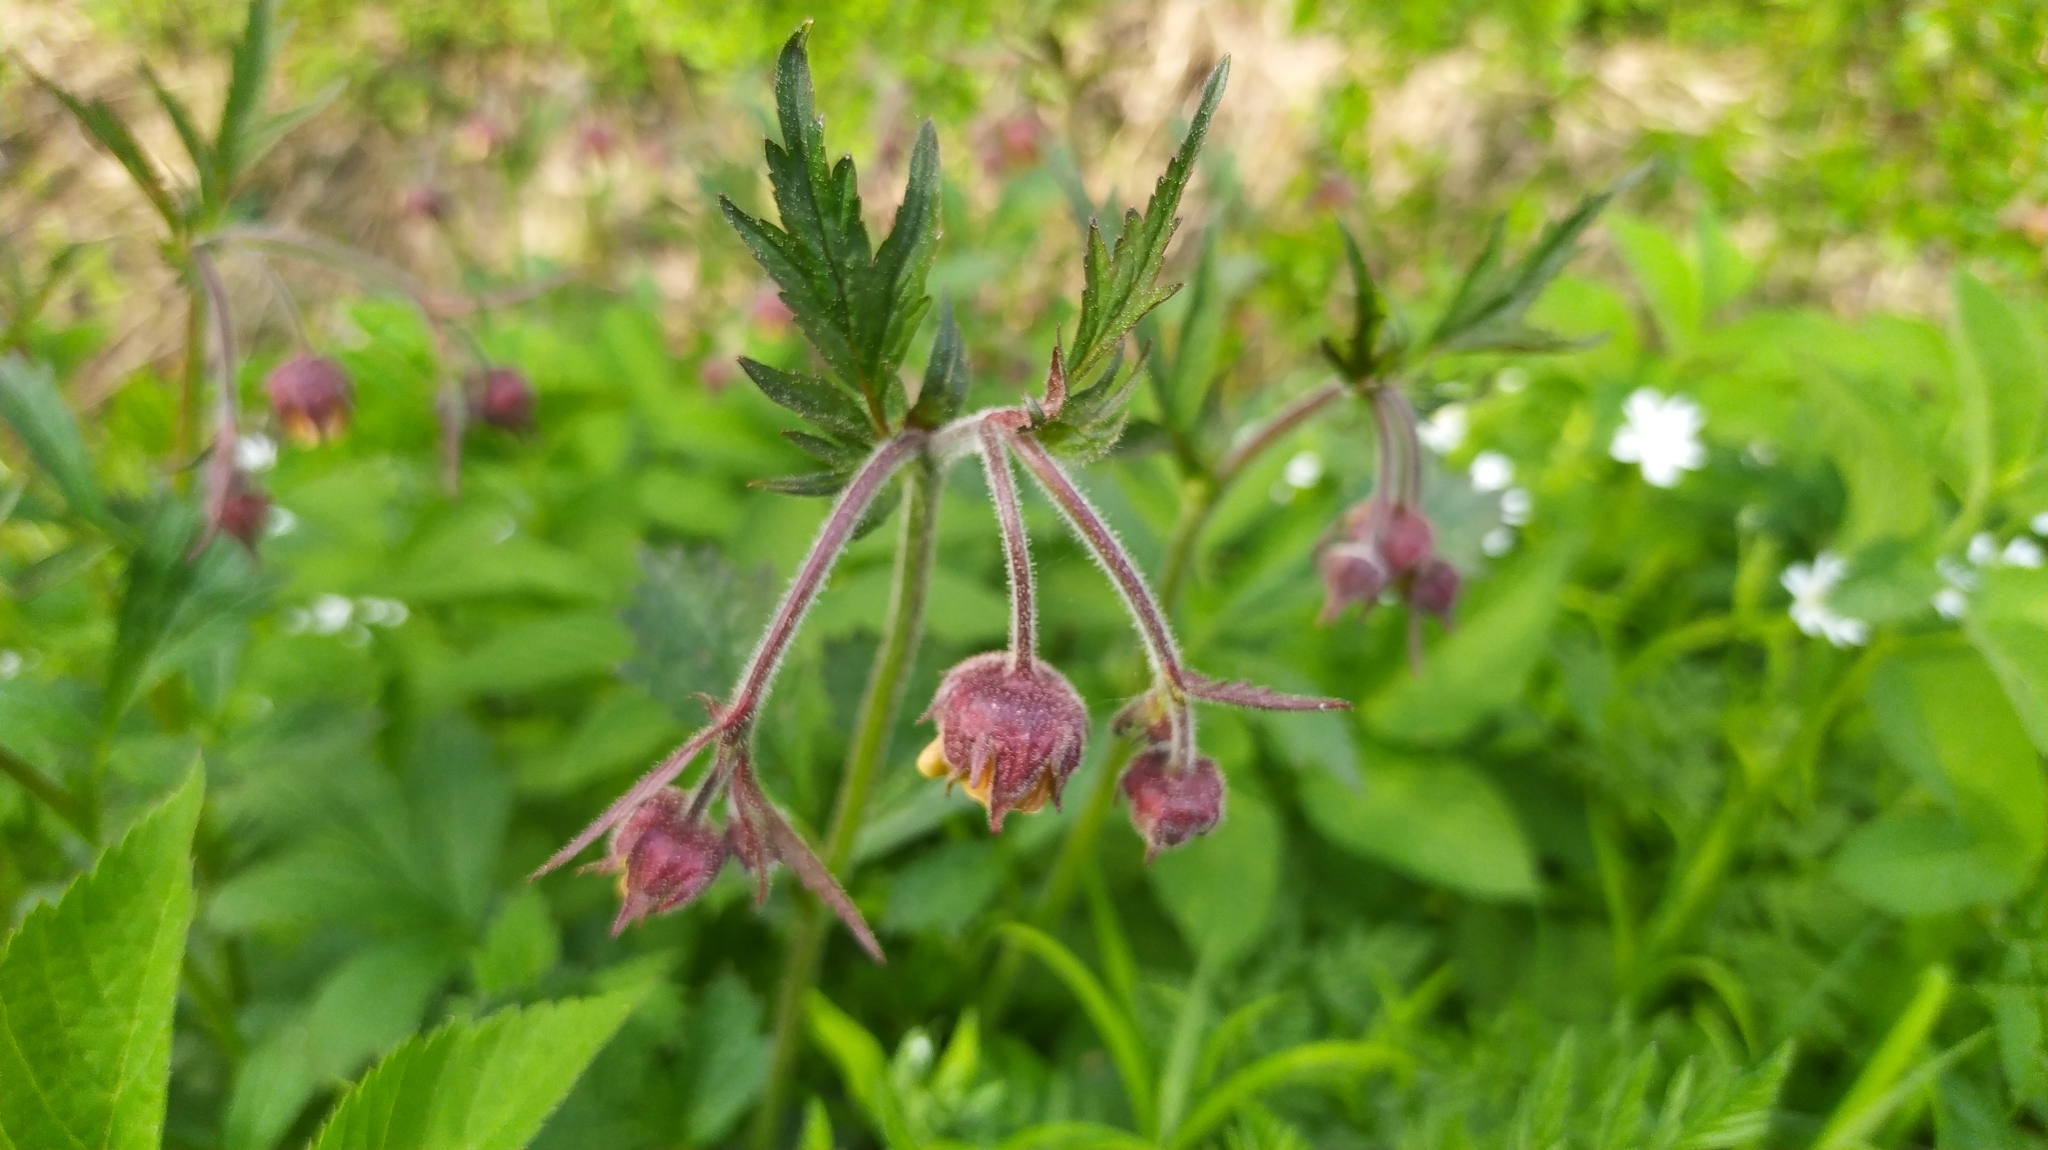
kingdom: Plantae
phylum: Tracheophyta
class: Magnoliopsida
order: Rosales
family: Rosaceae
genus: Geum
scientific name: Geum rivale
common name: Water avens
